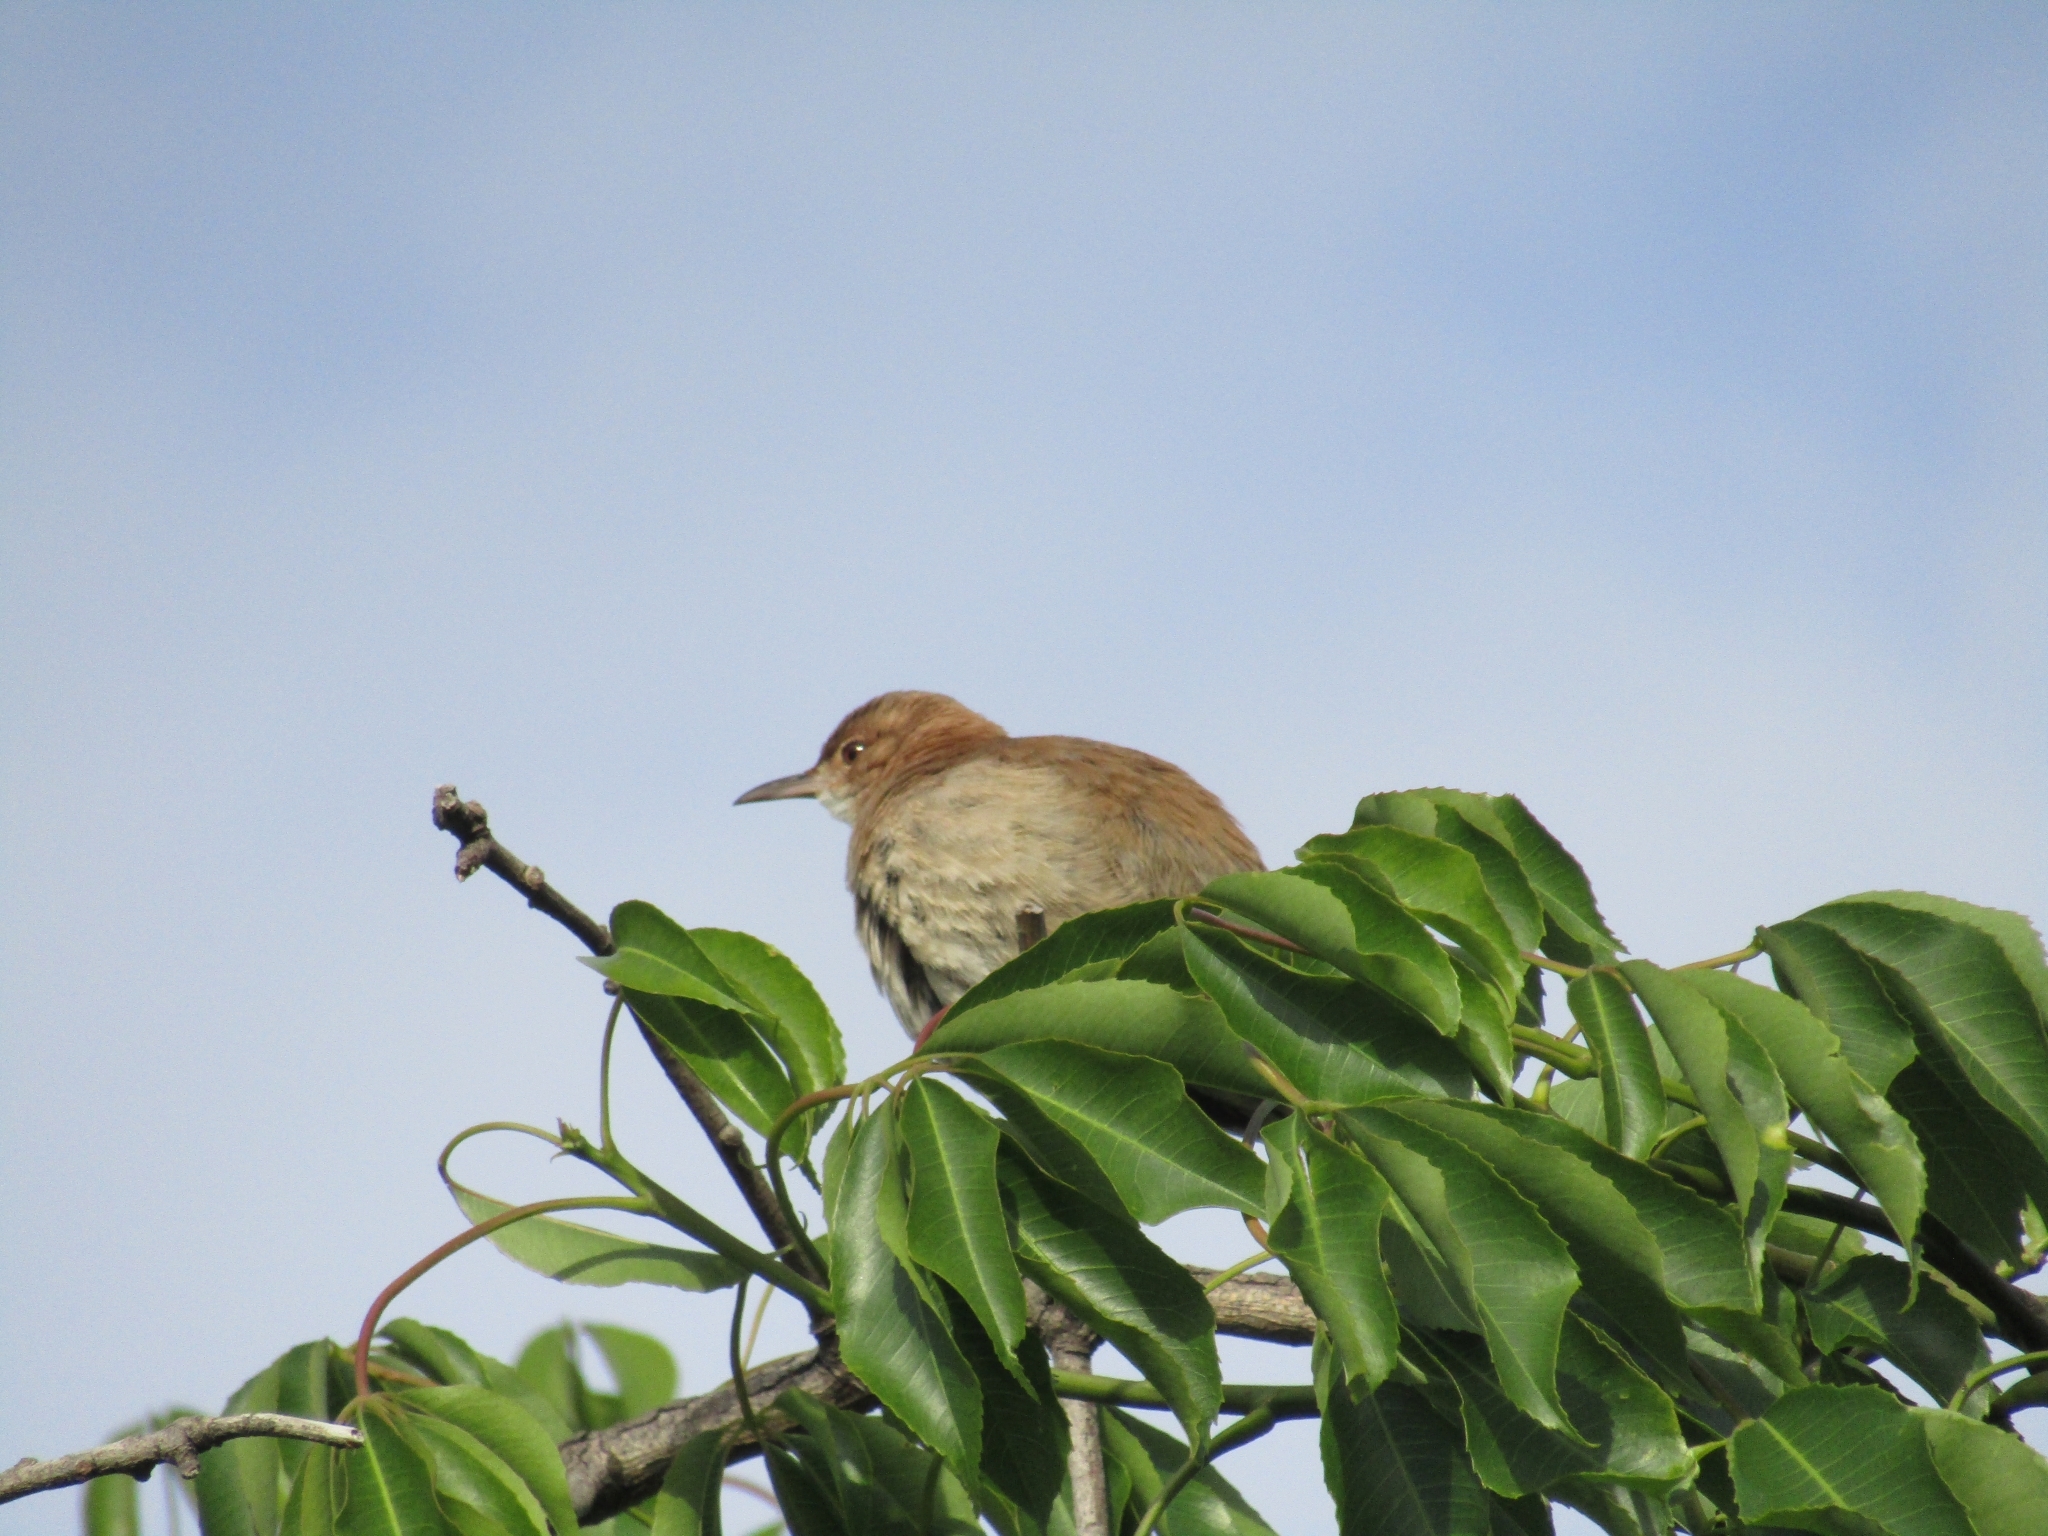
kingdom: Animalia
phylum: Chordata
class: Aves
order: Passeriformes
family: Furnariidae
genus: Furnarius
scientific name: Furnarius rufus
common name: Rufous hornero
